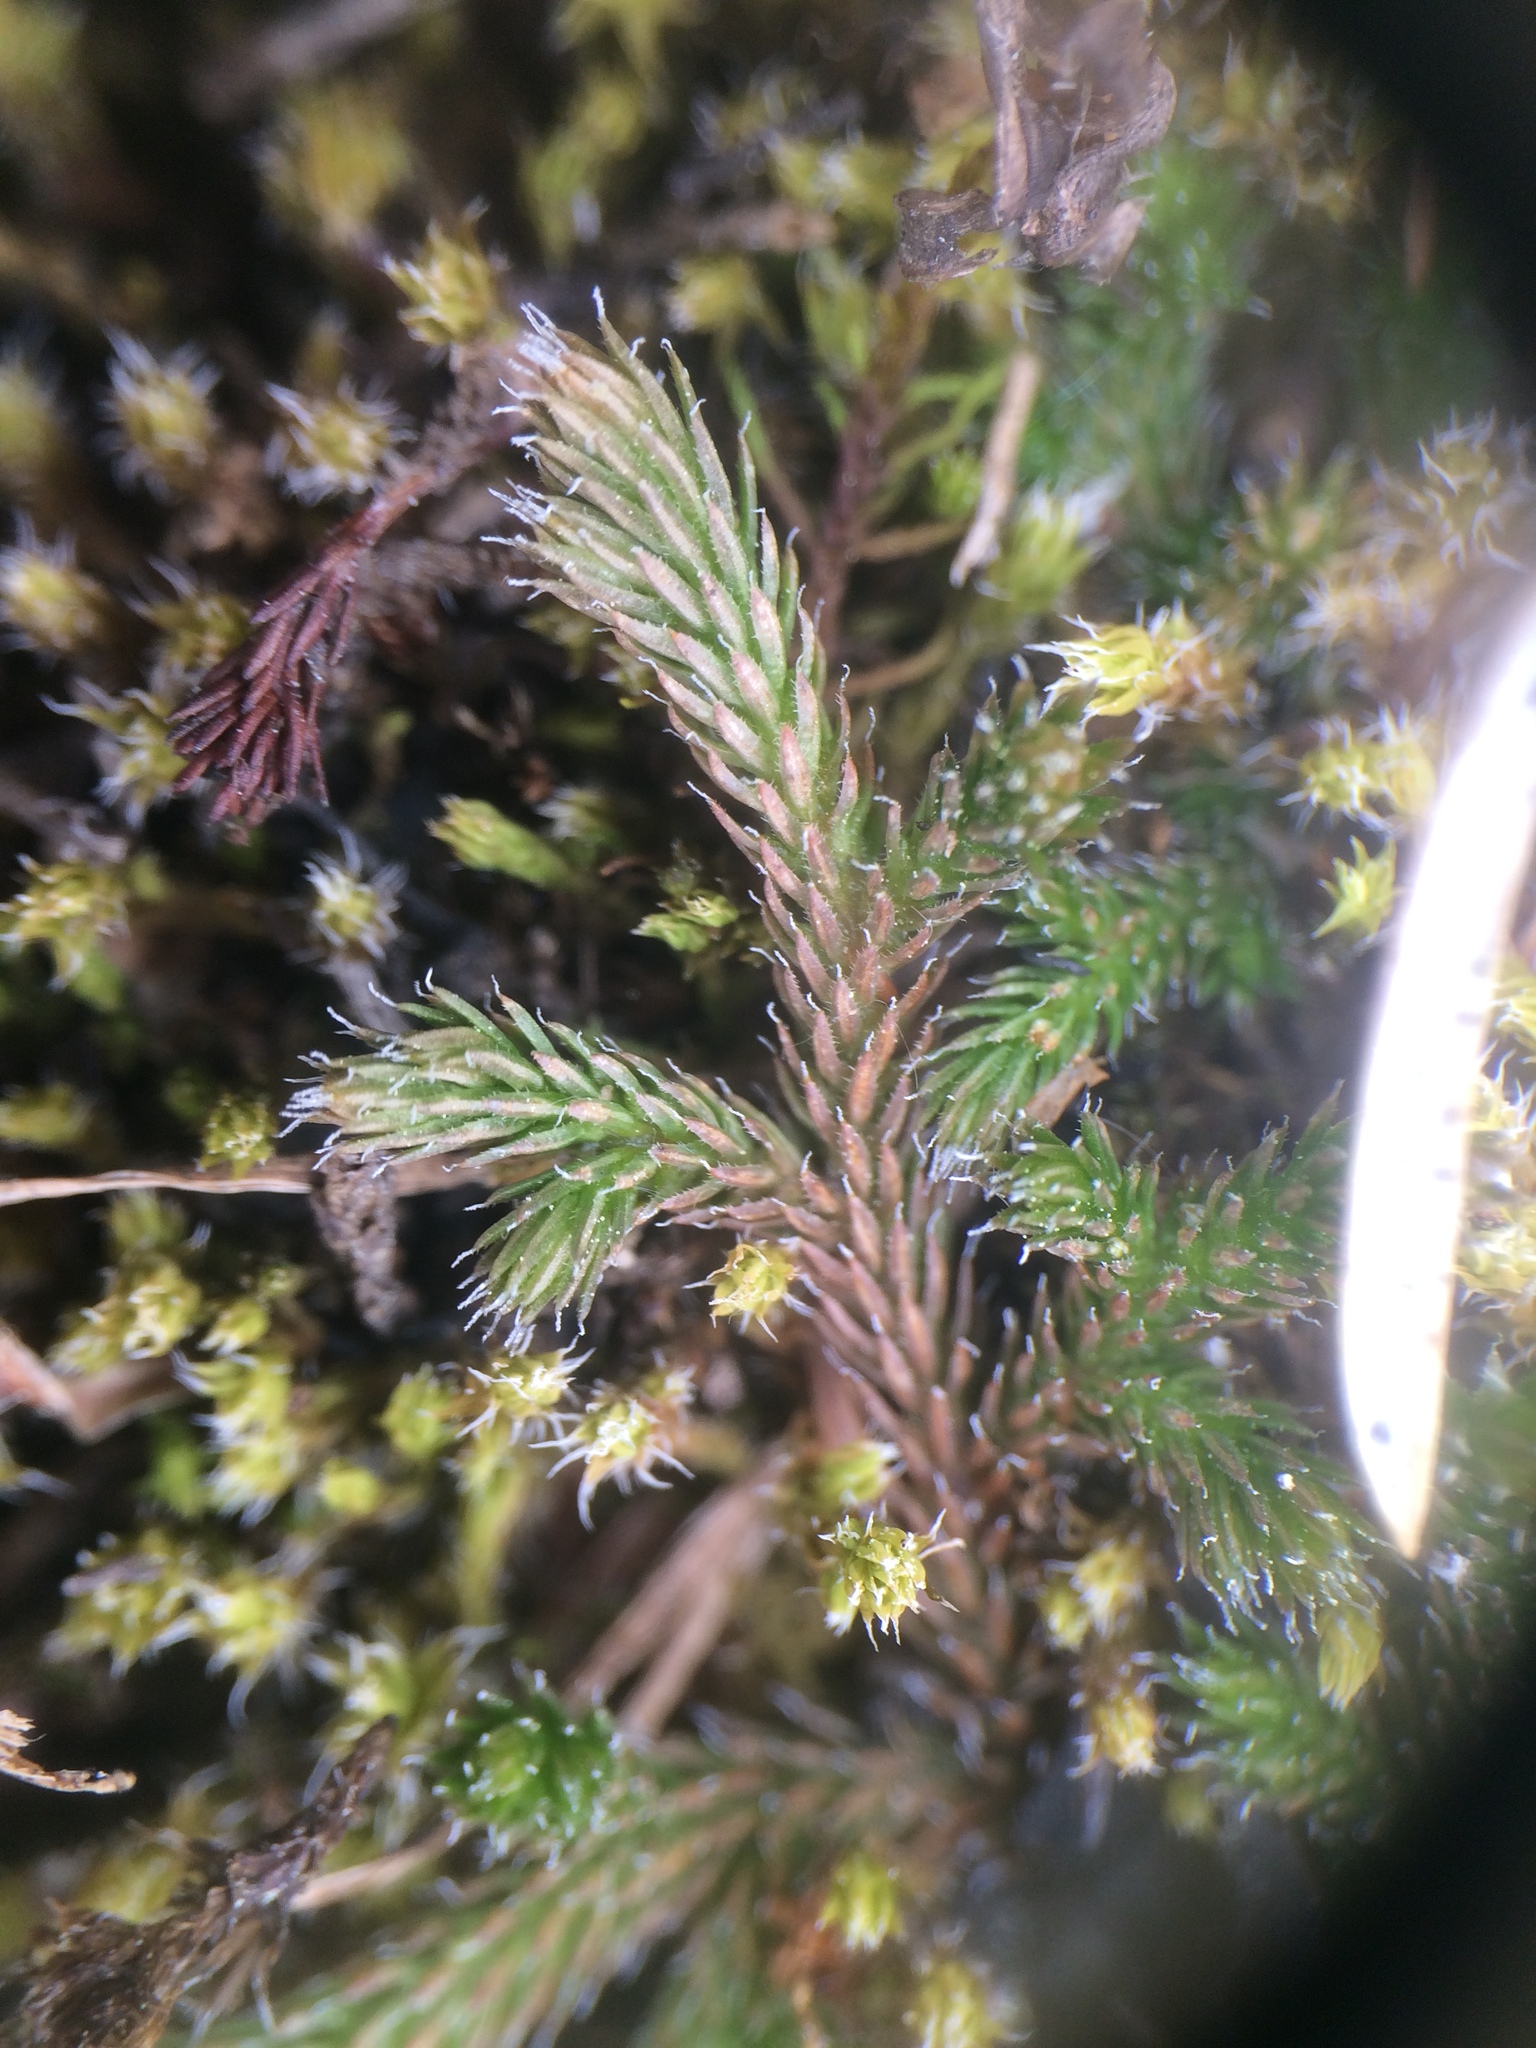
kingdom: Plantae
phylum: Tracheophyta
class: Lycopodiopsida
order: Selaginellales
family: Selaginellaceae
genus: Selaginella
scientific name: Selaginella rupestris
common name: Dwarf spikemoss
